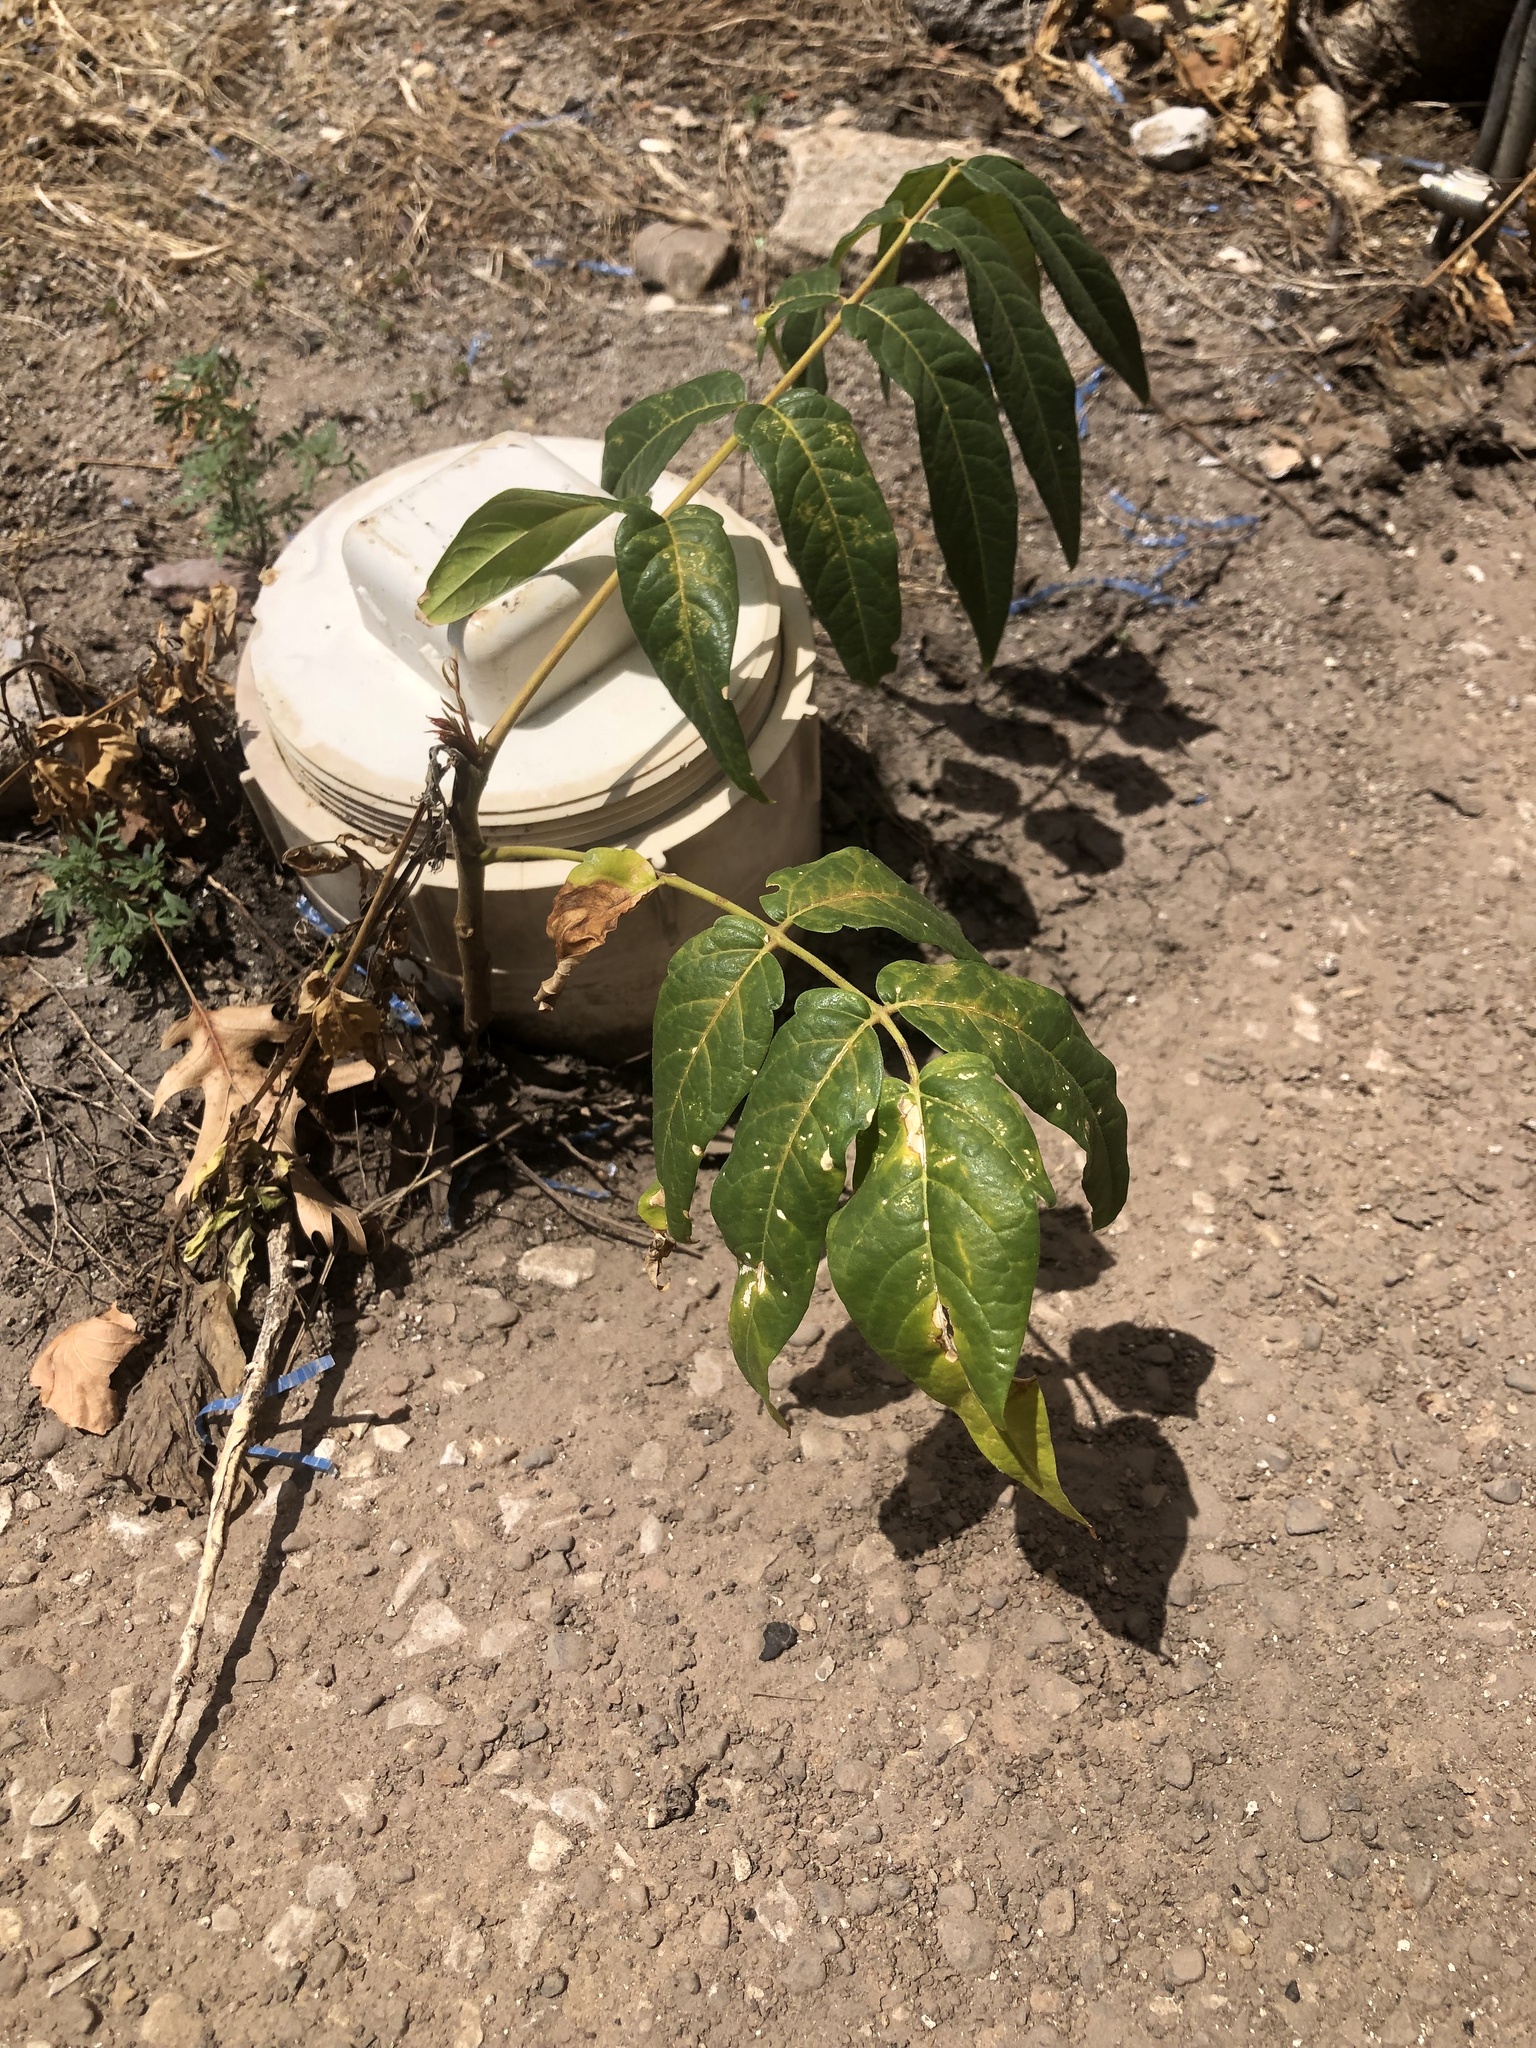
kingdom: Plantae
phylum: Tracheophyta
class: Magnoliopsida
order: Sapindales
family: Simaroubaceae
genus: Ailanthus
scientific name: Ailanthus altissima
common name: Tree-of-heaven
